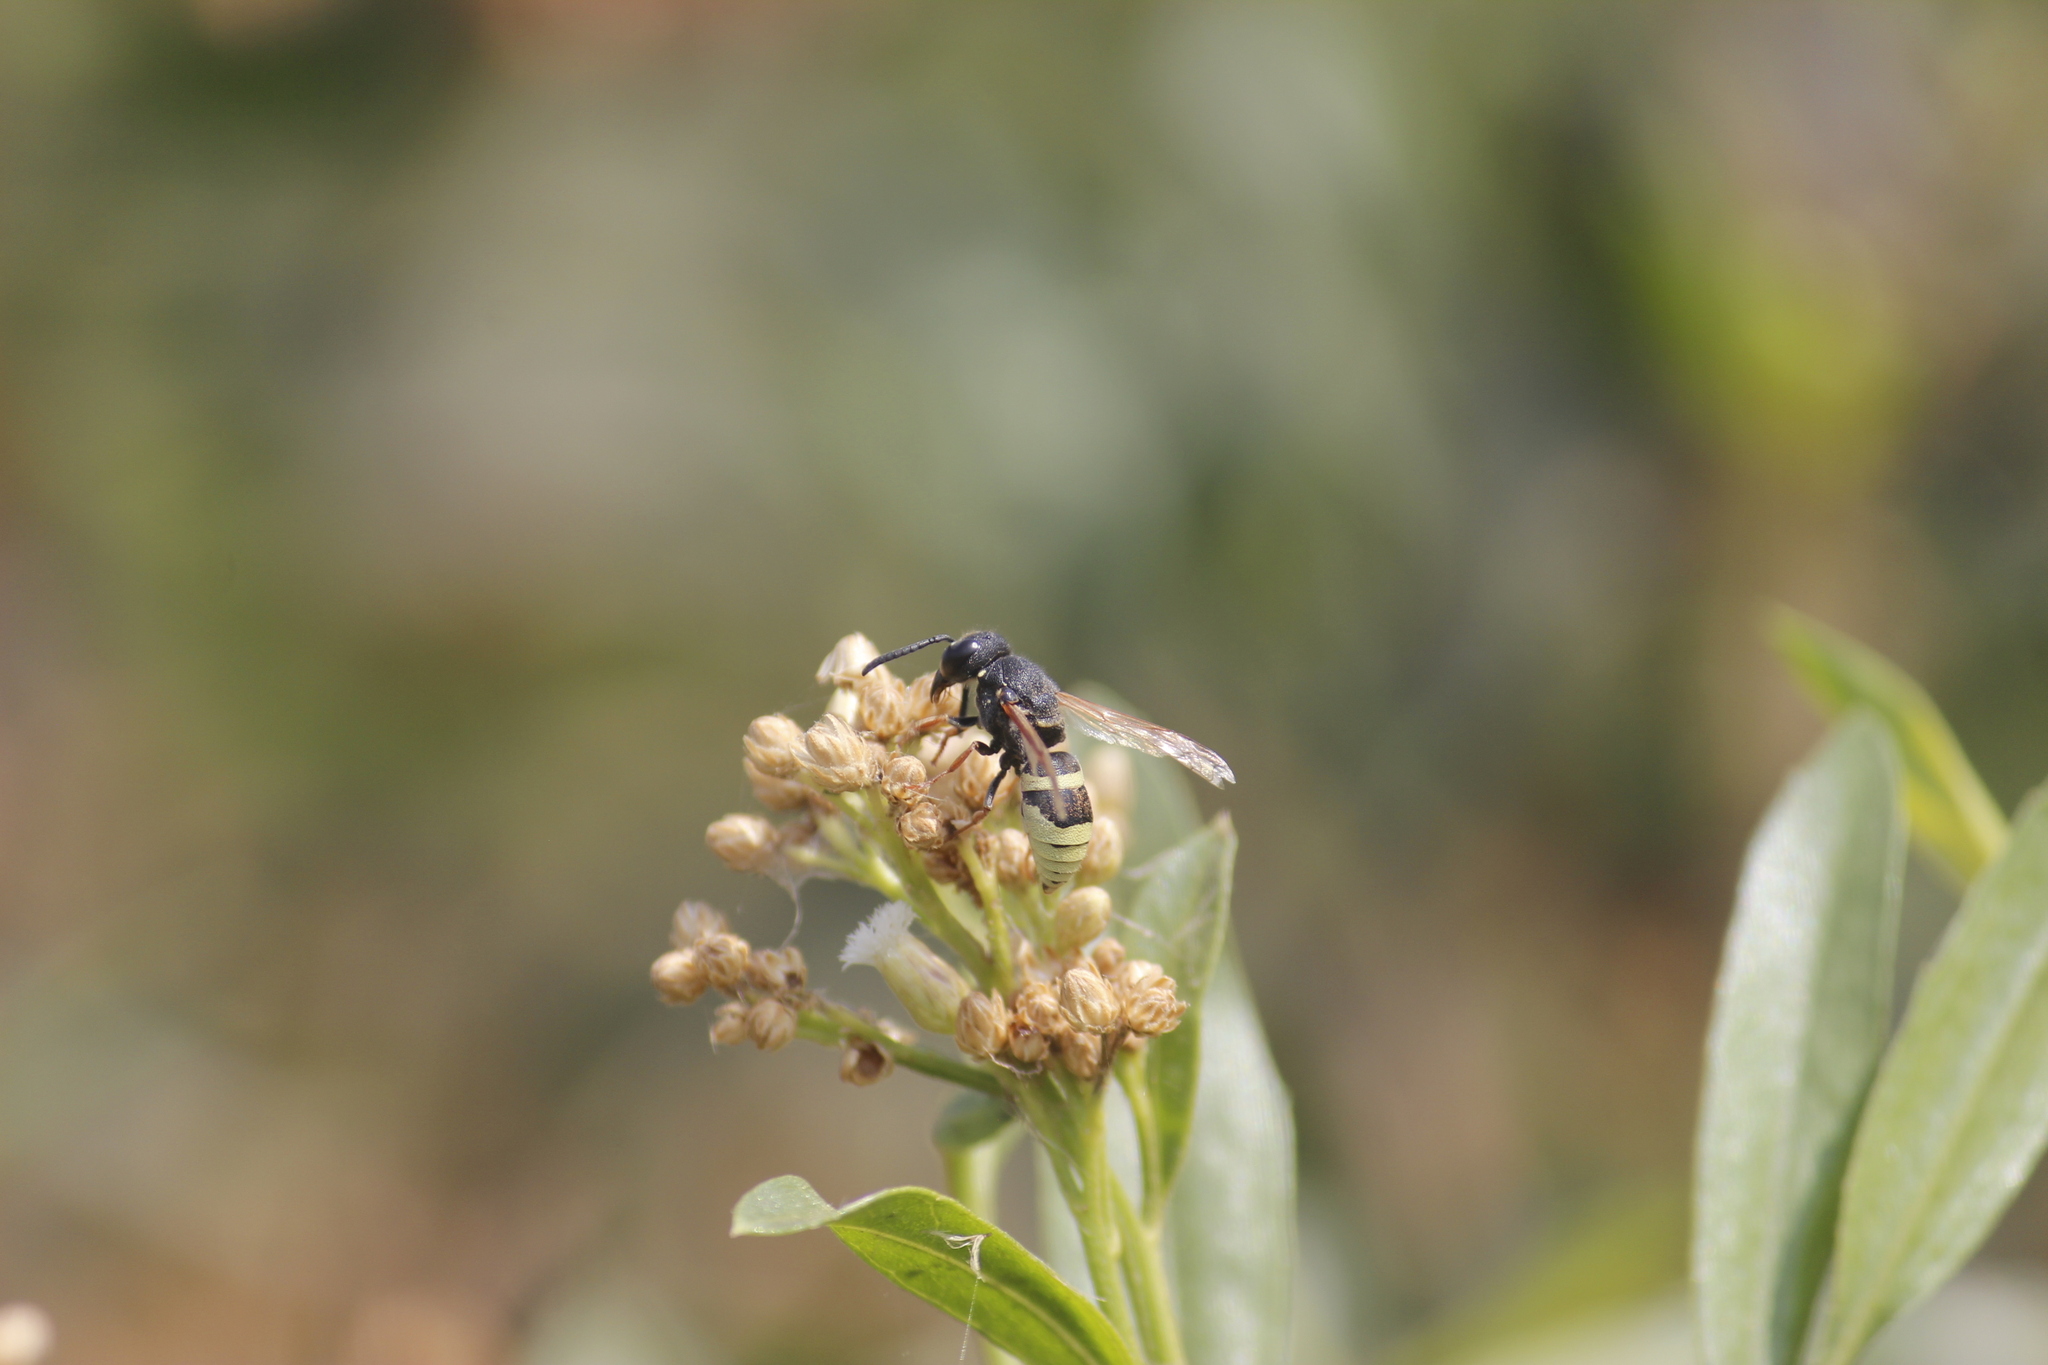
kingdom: Animalia
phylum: Arthropoda
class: Insecta
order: Hymenoptera
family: Eumenidae
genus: Pachodynerus
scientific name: Pachodynerus peruensis
